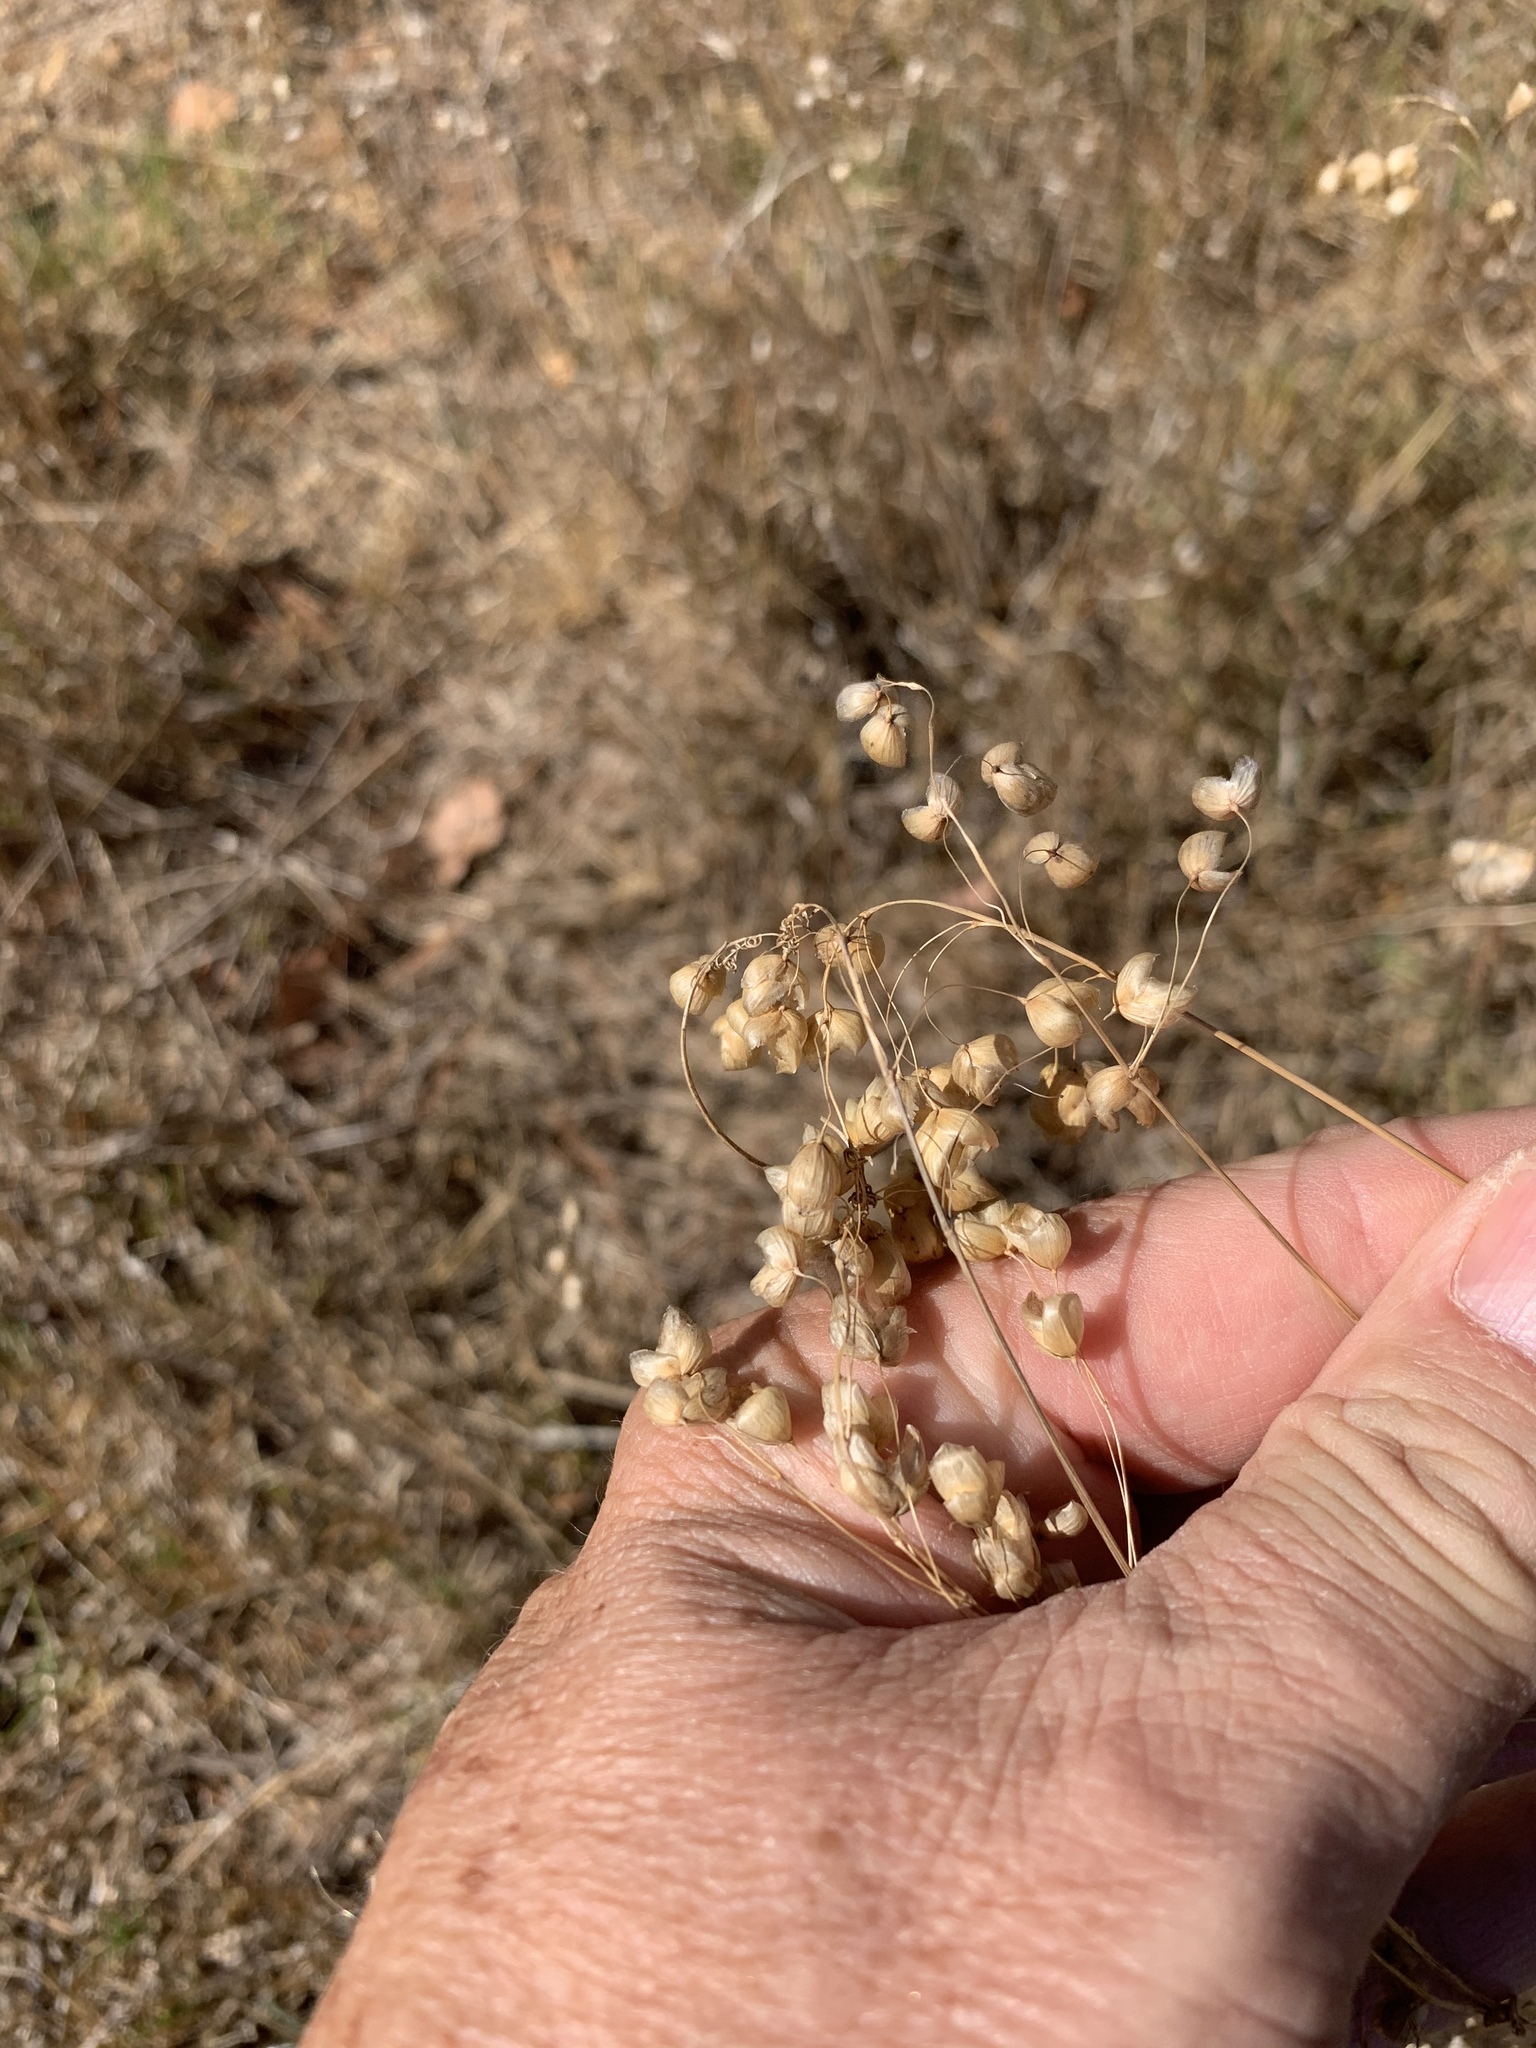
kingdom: Plantae
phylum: Tracheophyta
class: Liliopsida
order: Poales
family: Poaceae
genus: Briza
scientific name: Briza maxima
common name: Big quakinggrass
